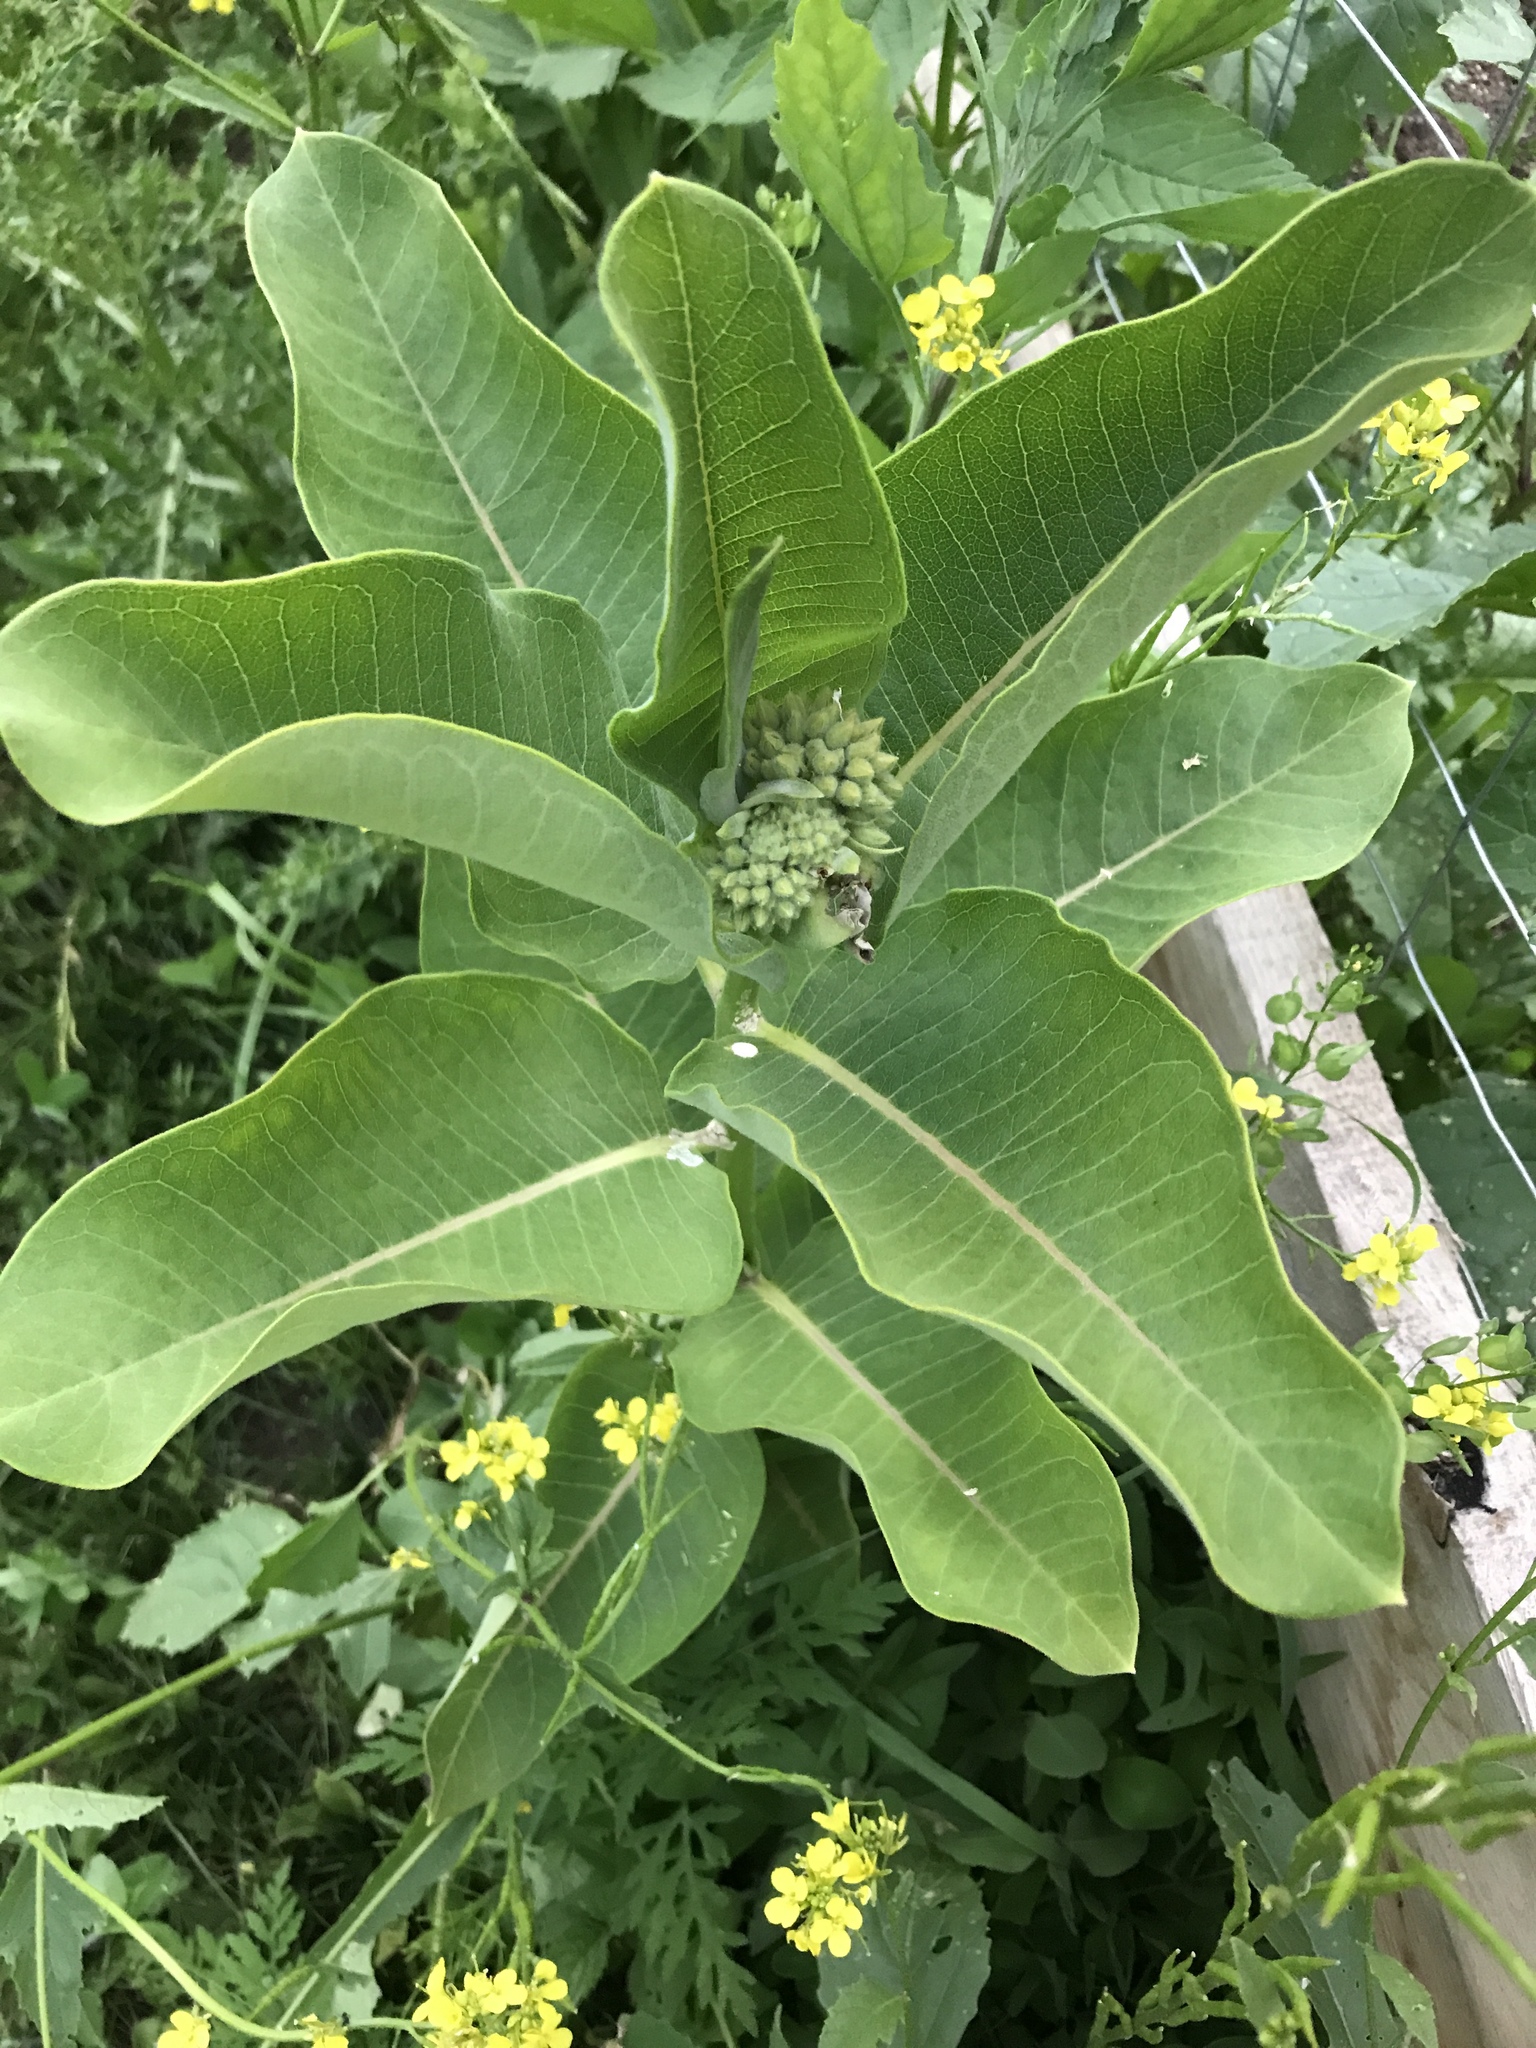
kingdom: Plantae
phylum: Tracheophyta
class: Magnoliopsida
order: Gentianales
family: Apocynaceae
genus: Asclepias
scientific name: Asclepias syriaca
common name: Common milkweed
